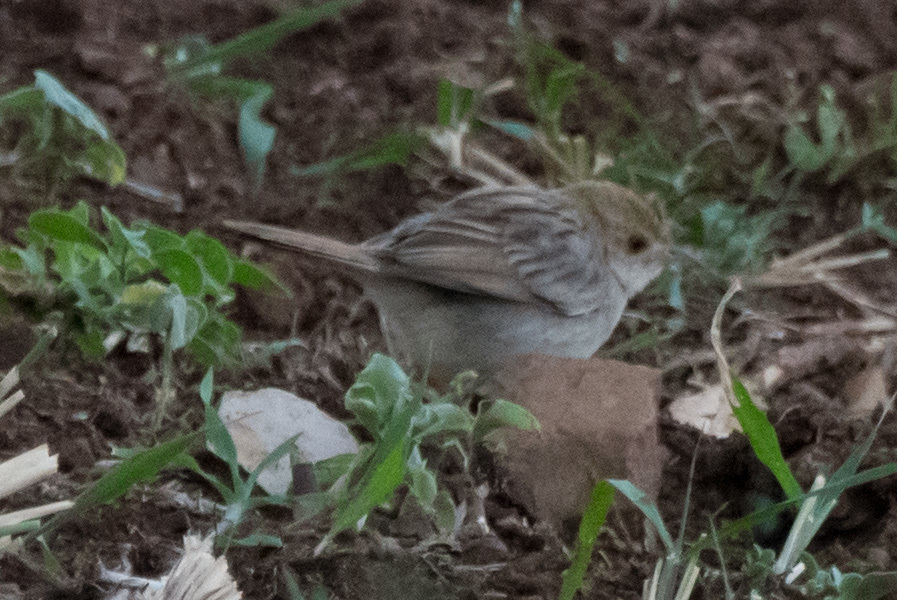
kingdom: Animalia
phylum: Chordata
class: Aves
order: Passeriformes
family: Cisticolidae
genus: Cisticola
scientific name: Cisticola chiniana
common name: Rattling cisticola
